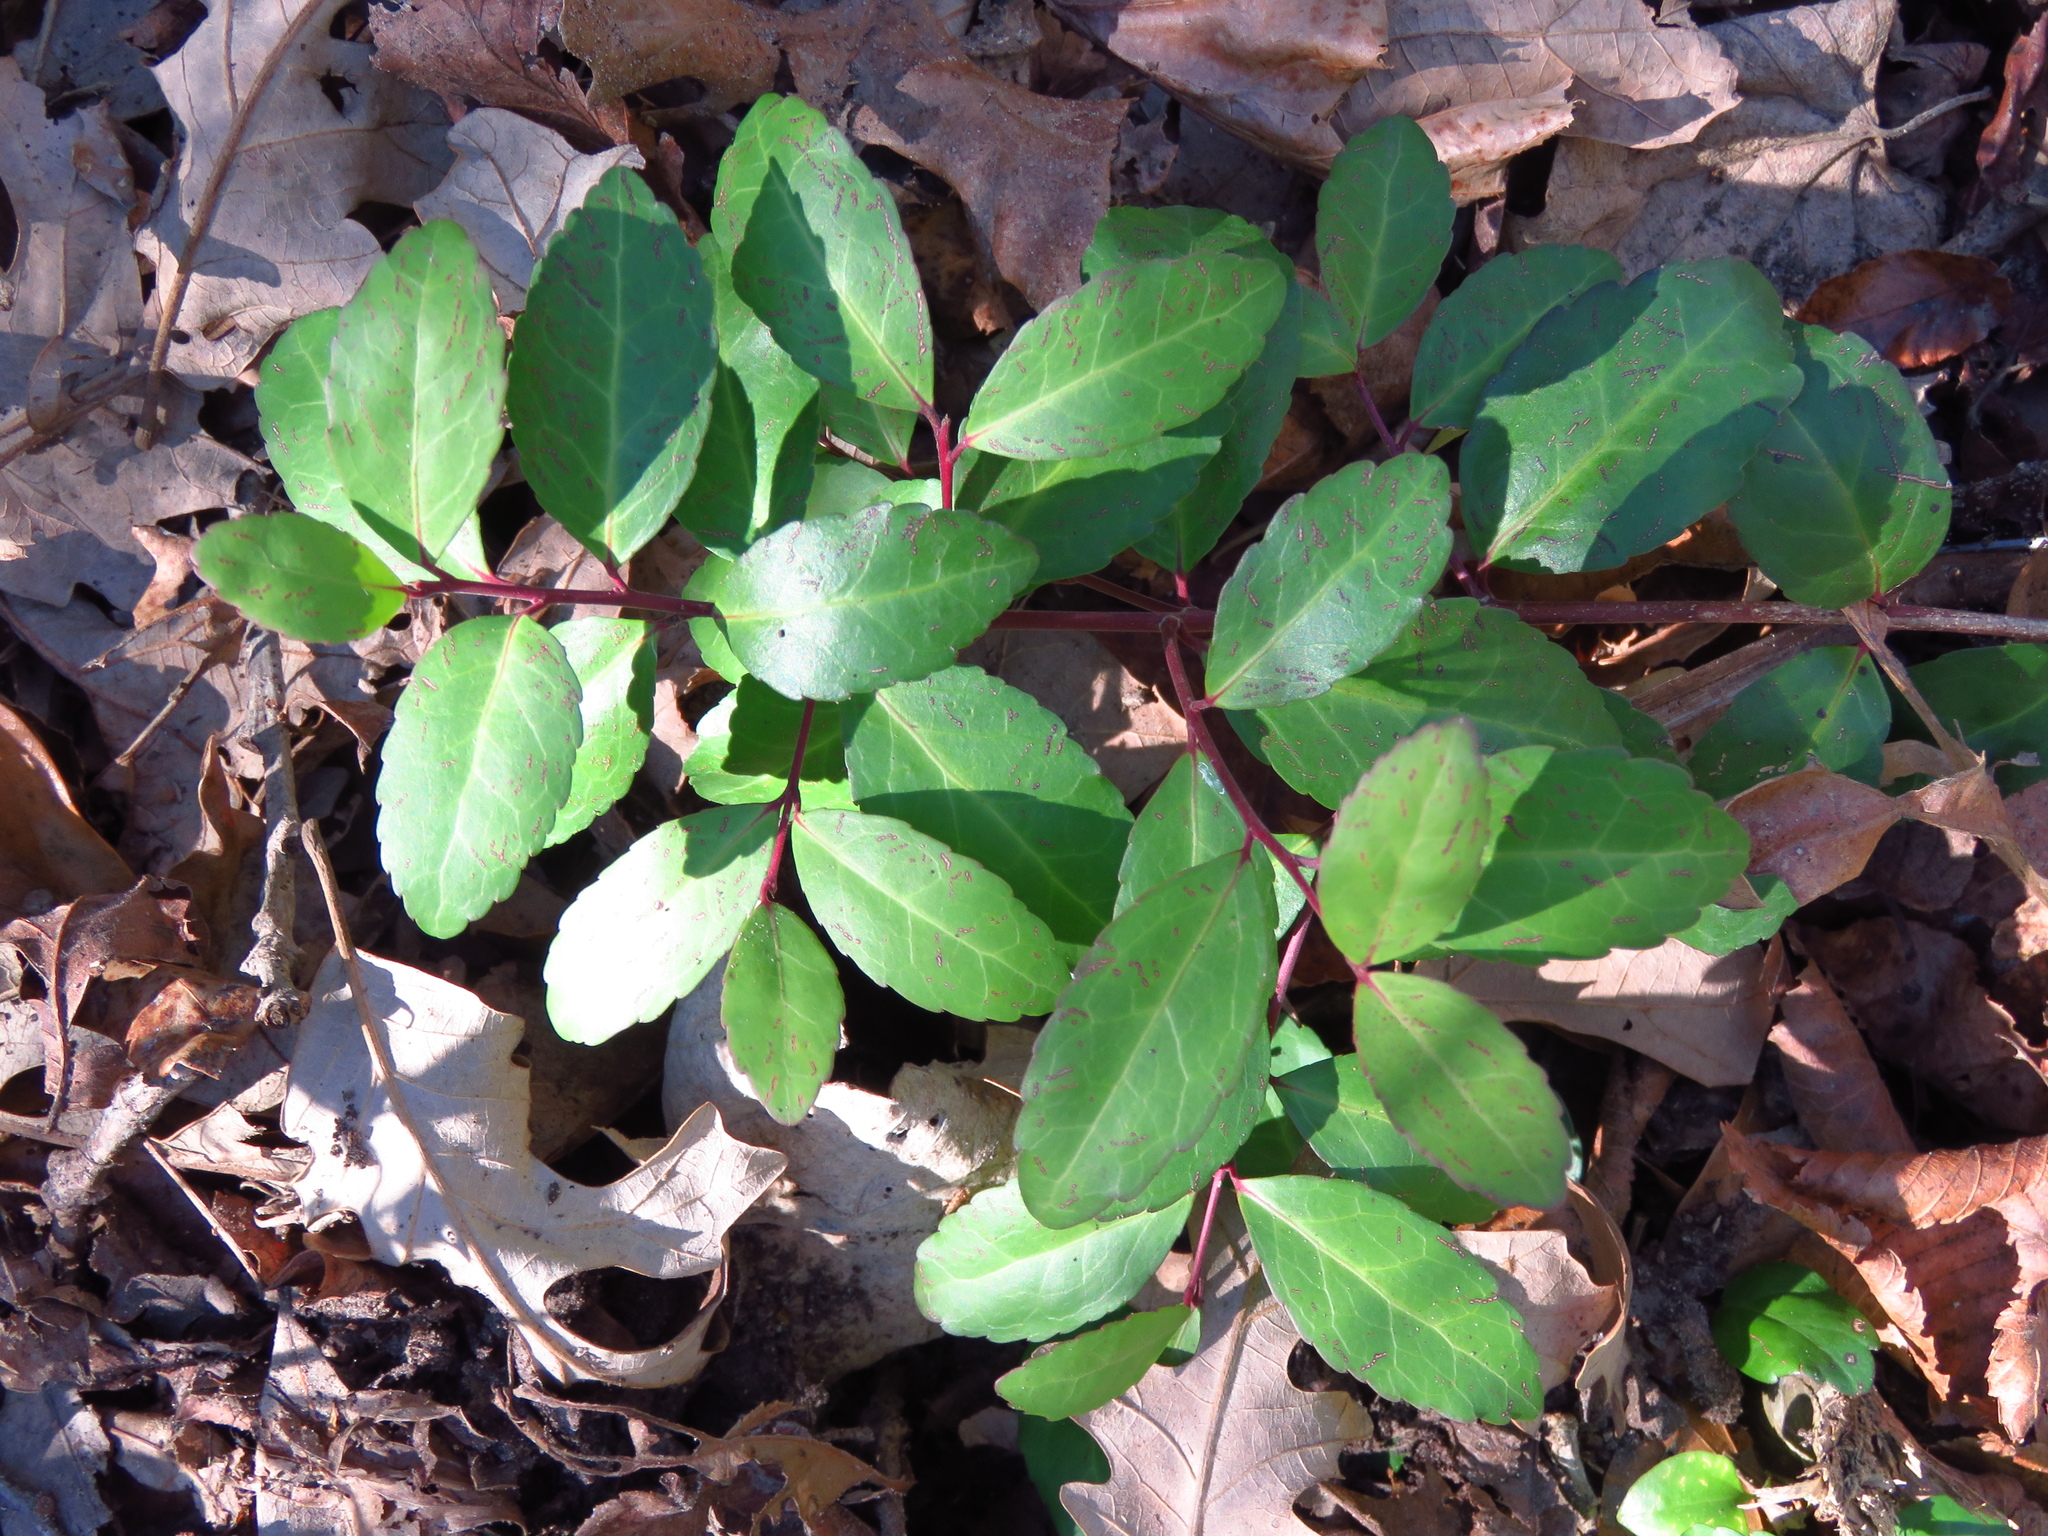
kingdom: Plantae
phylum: Tracheophyta
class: Magnoliopsida
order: Aquifoliales
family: Aquifoliaceae
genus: Ilex
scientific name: Ilex vomitoria
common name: Yaupon holly
